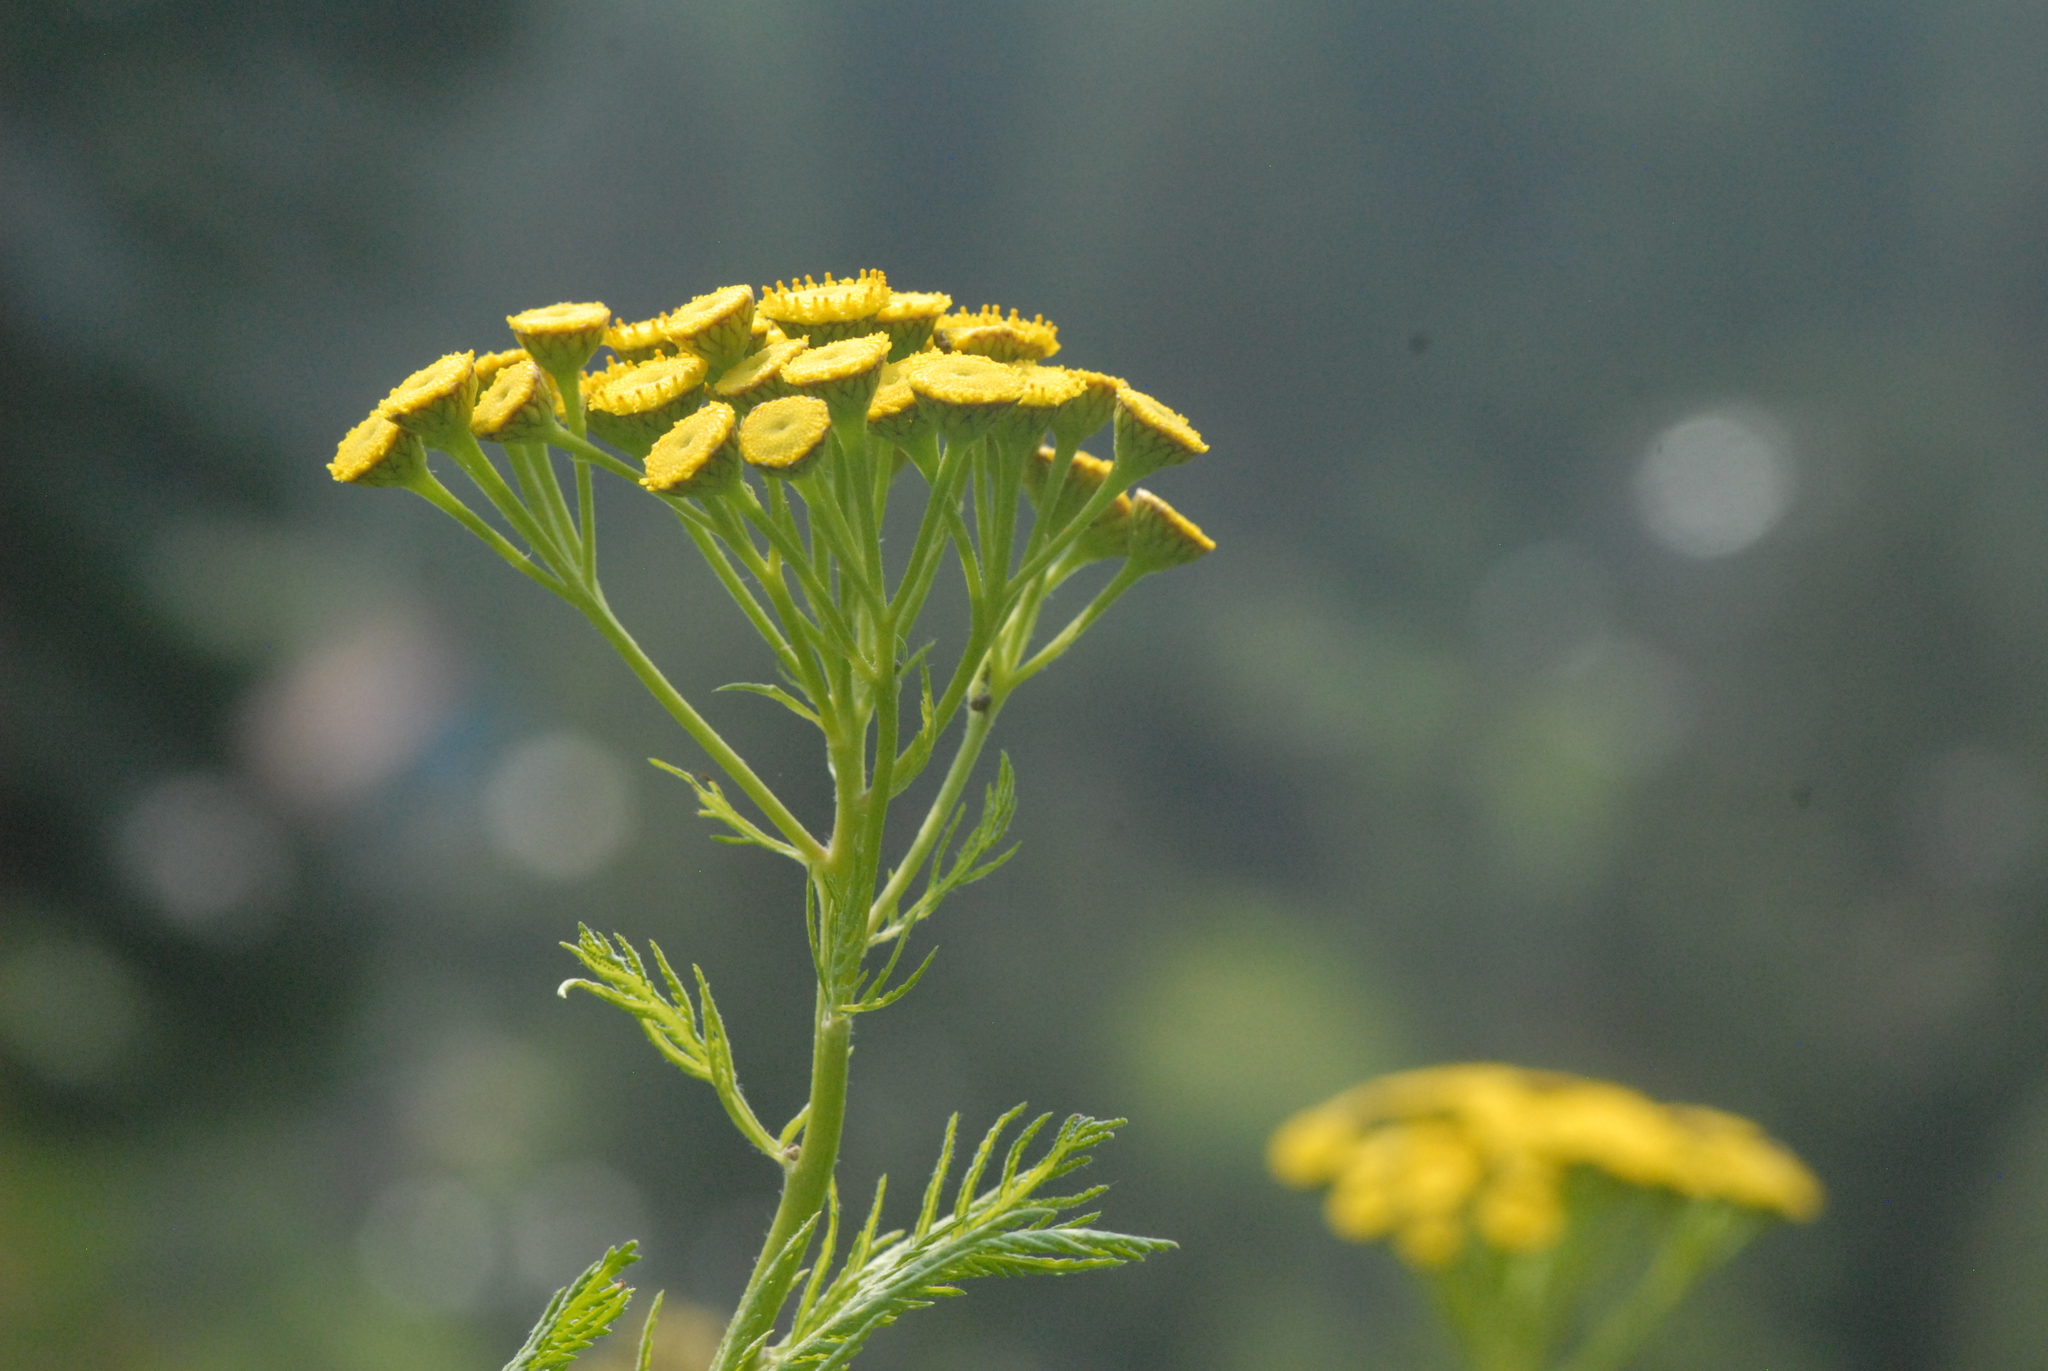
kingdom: Plantae
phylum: Tracheophyta
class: Magnoliopsida
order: Asterales
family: Asteraceae
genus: Tanacetum
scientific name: Tanacetum vulgare
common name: Common tansy
